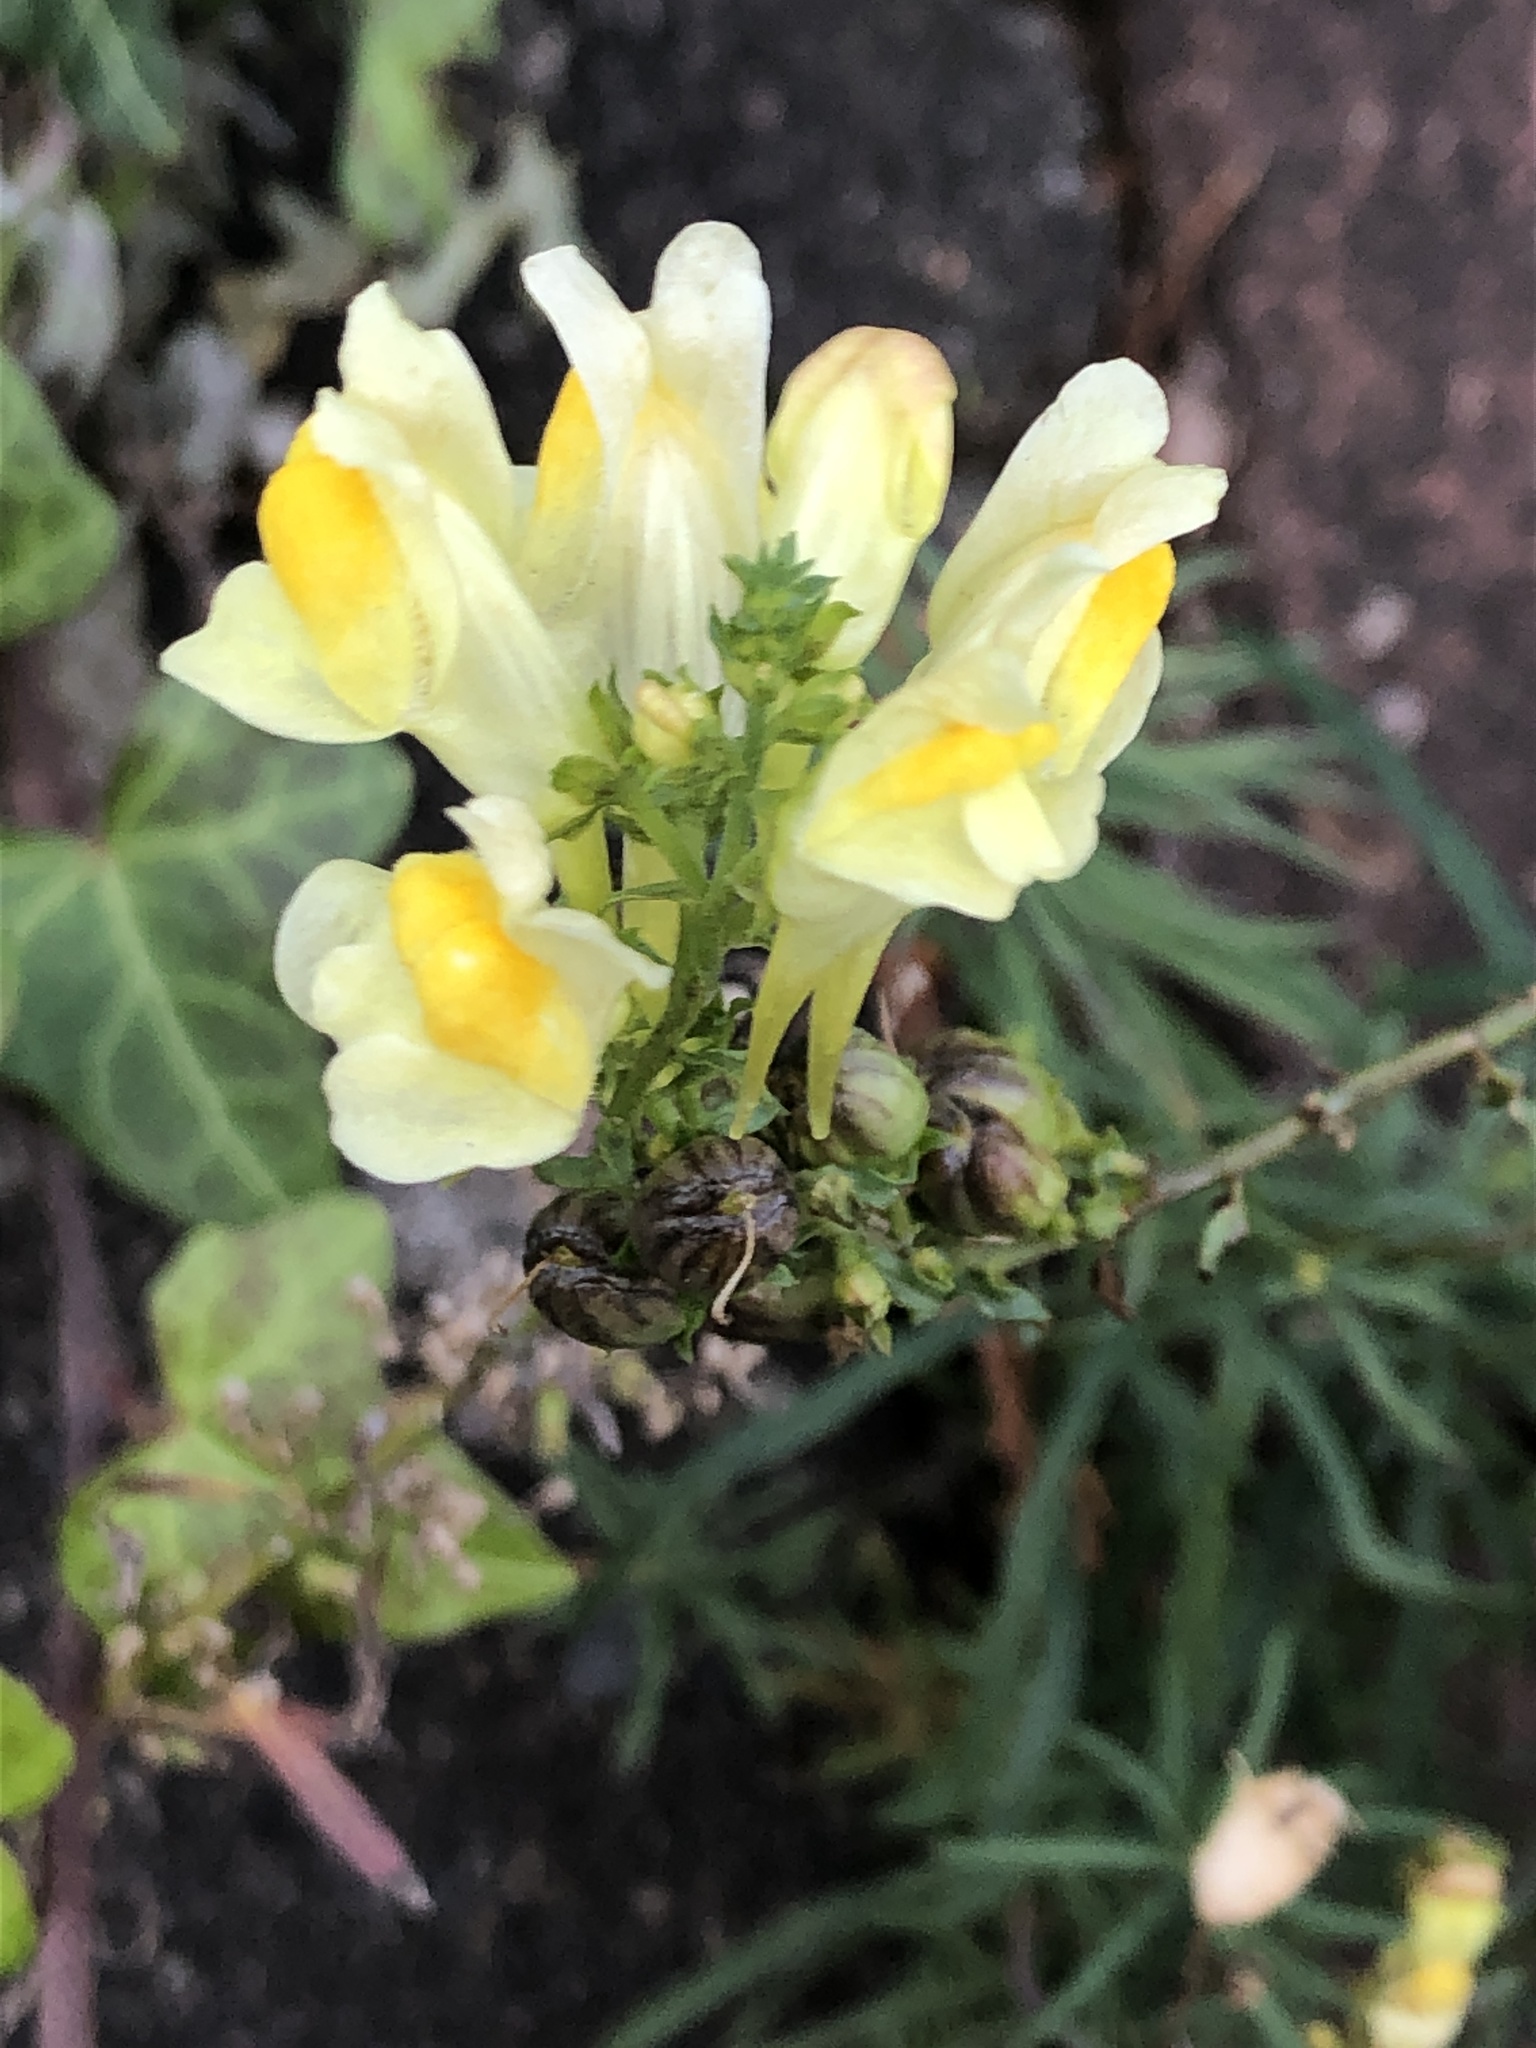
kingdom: Plantae
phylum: Tracheophyta
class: Magnoliopsida
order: Lamiales
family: Plantaginaceae
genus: Linaria
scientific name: Linaria vulgaris
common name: Butter and eggs
